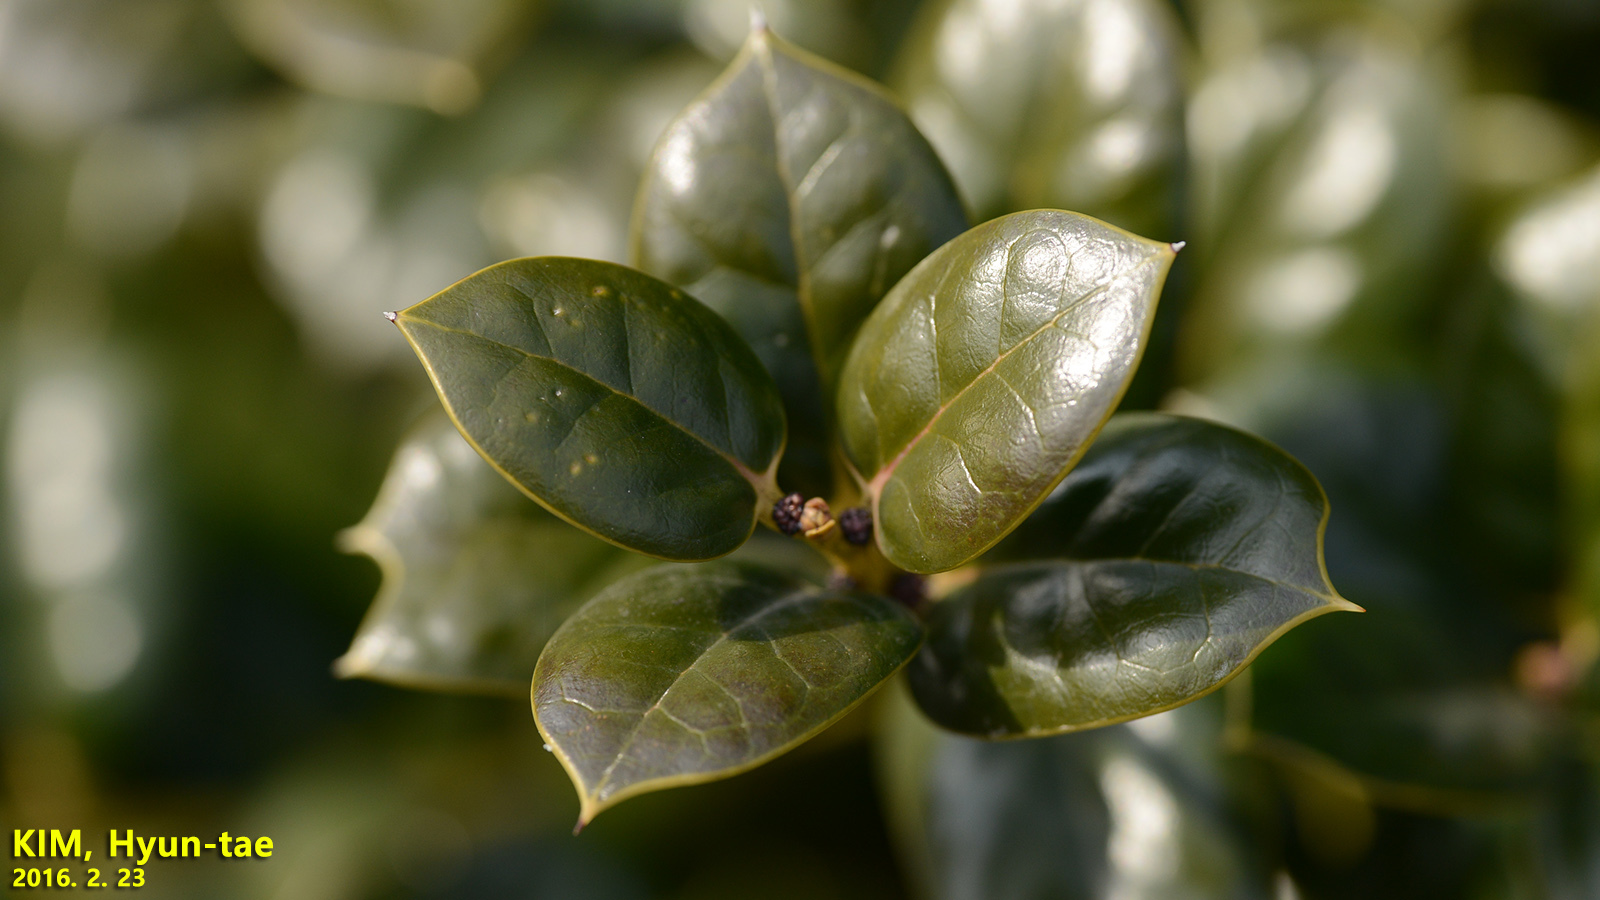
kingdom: Plantae
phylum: Tracheophyta
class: Magnoliopsida
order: Aquifoliales
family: Aquifoliaceae
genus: Ilex
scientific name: Ilex cornuta
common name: Chinese holly
